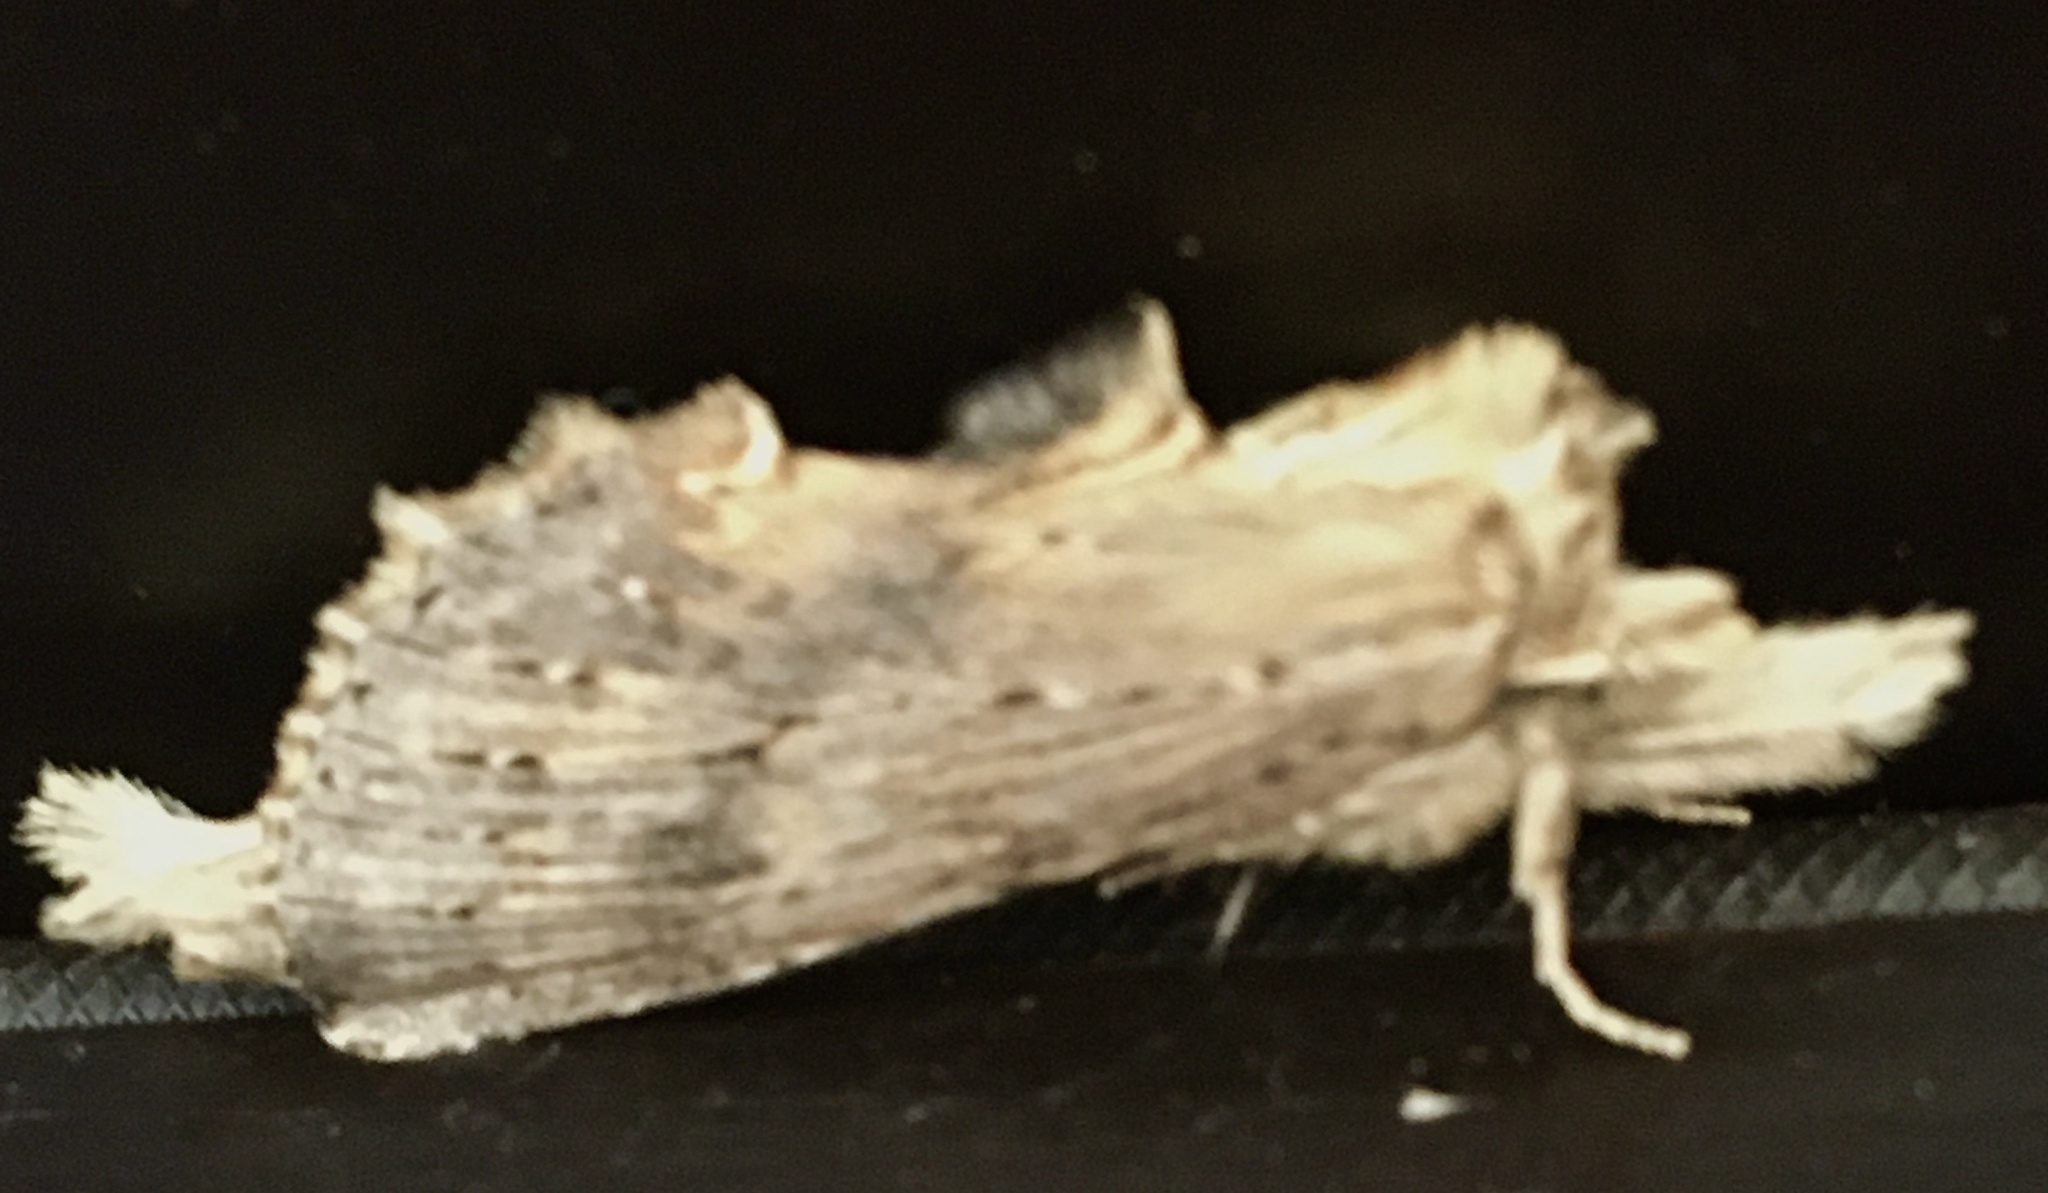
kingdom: Animalia
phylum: Arthropoda
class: Insecta
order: Lepidoptera
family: Notodontidae
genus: Pterostoma
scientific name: Pterostoma palpina
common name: Pale prominent
